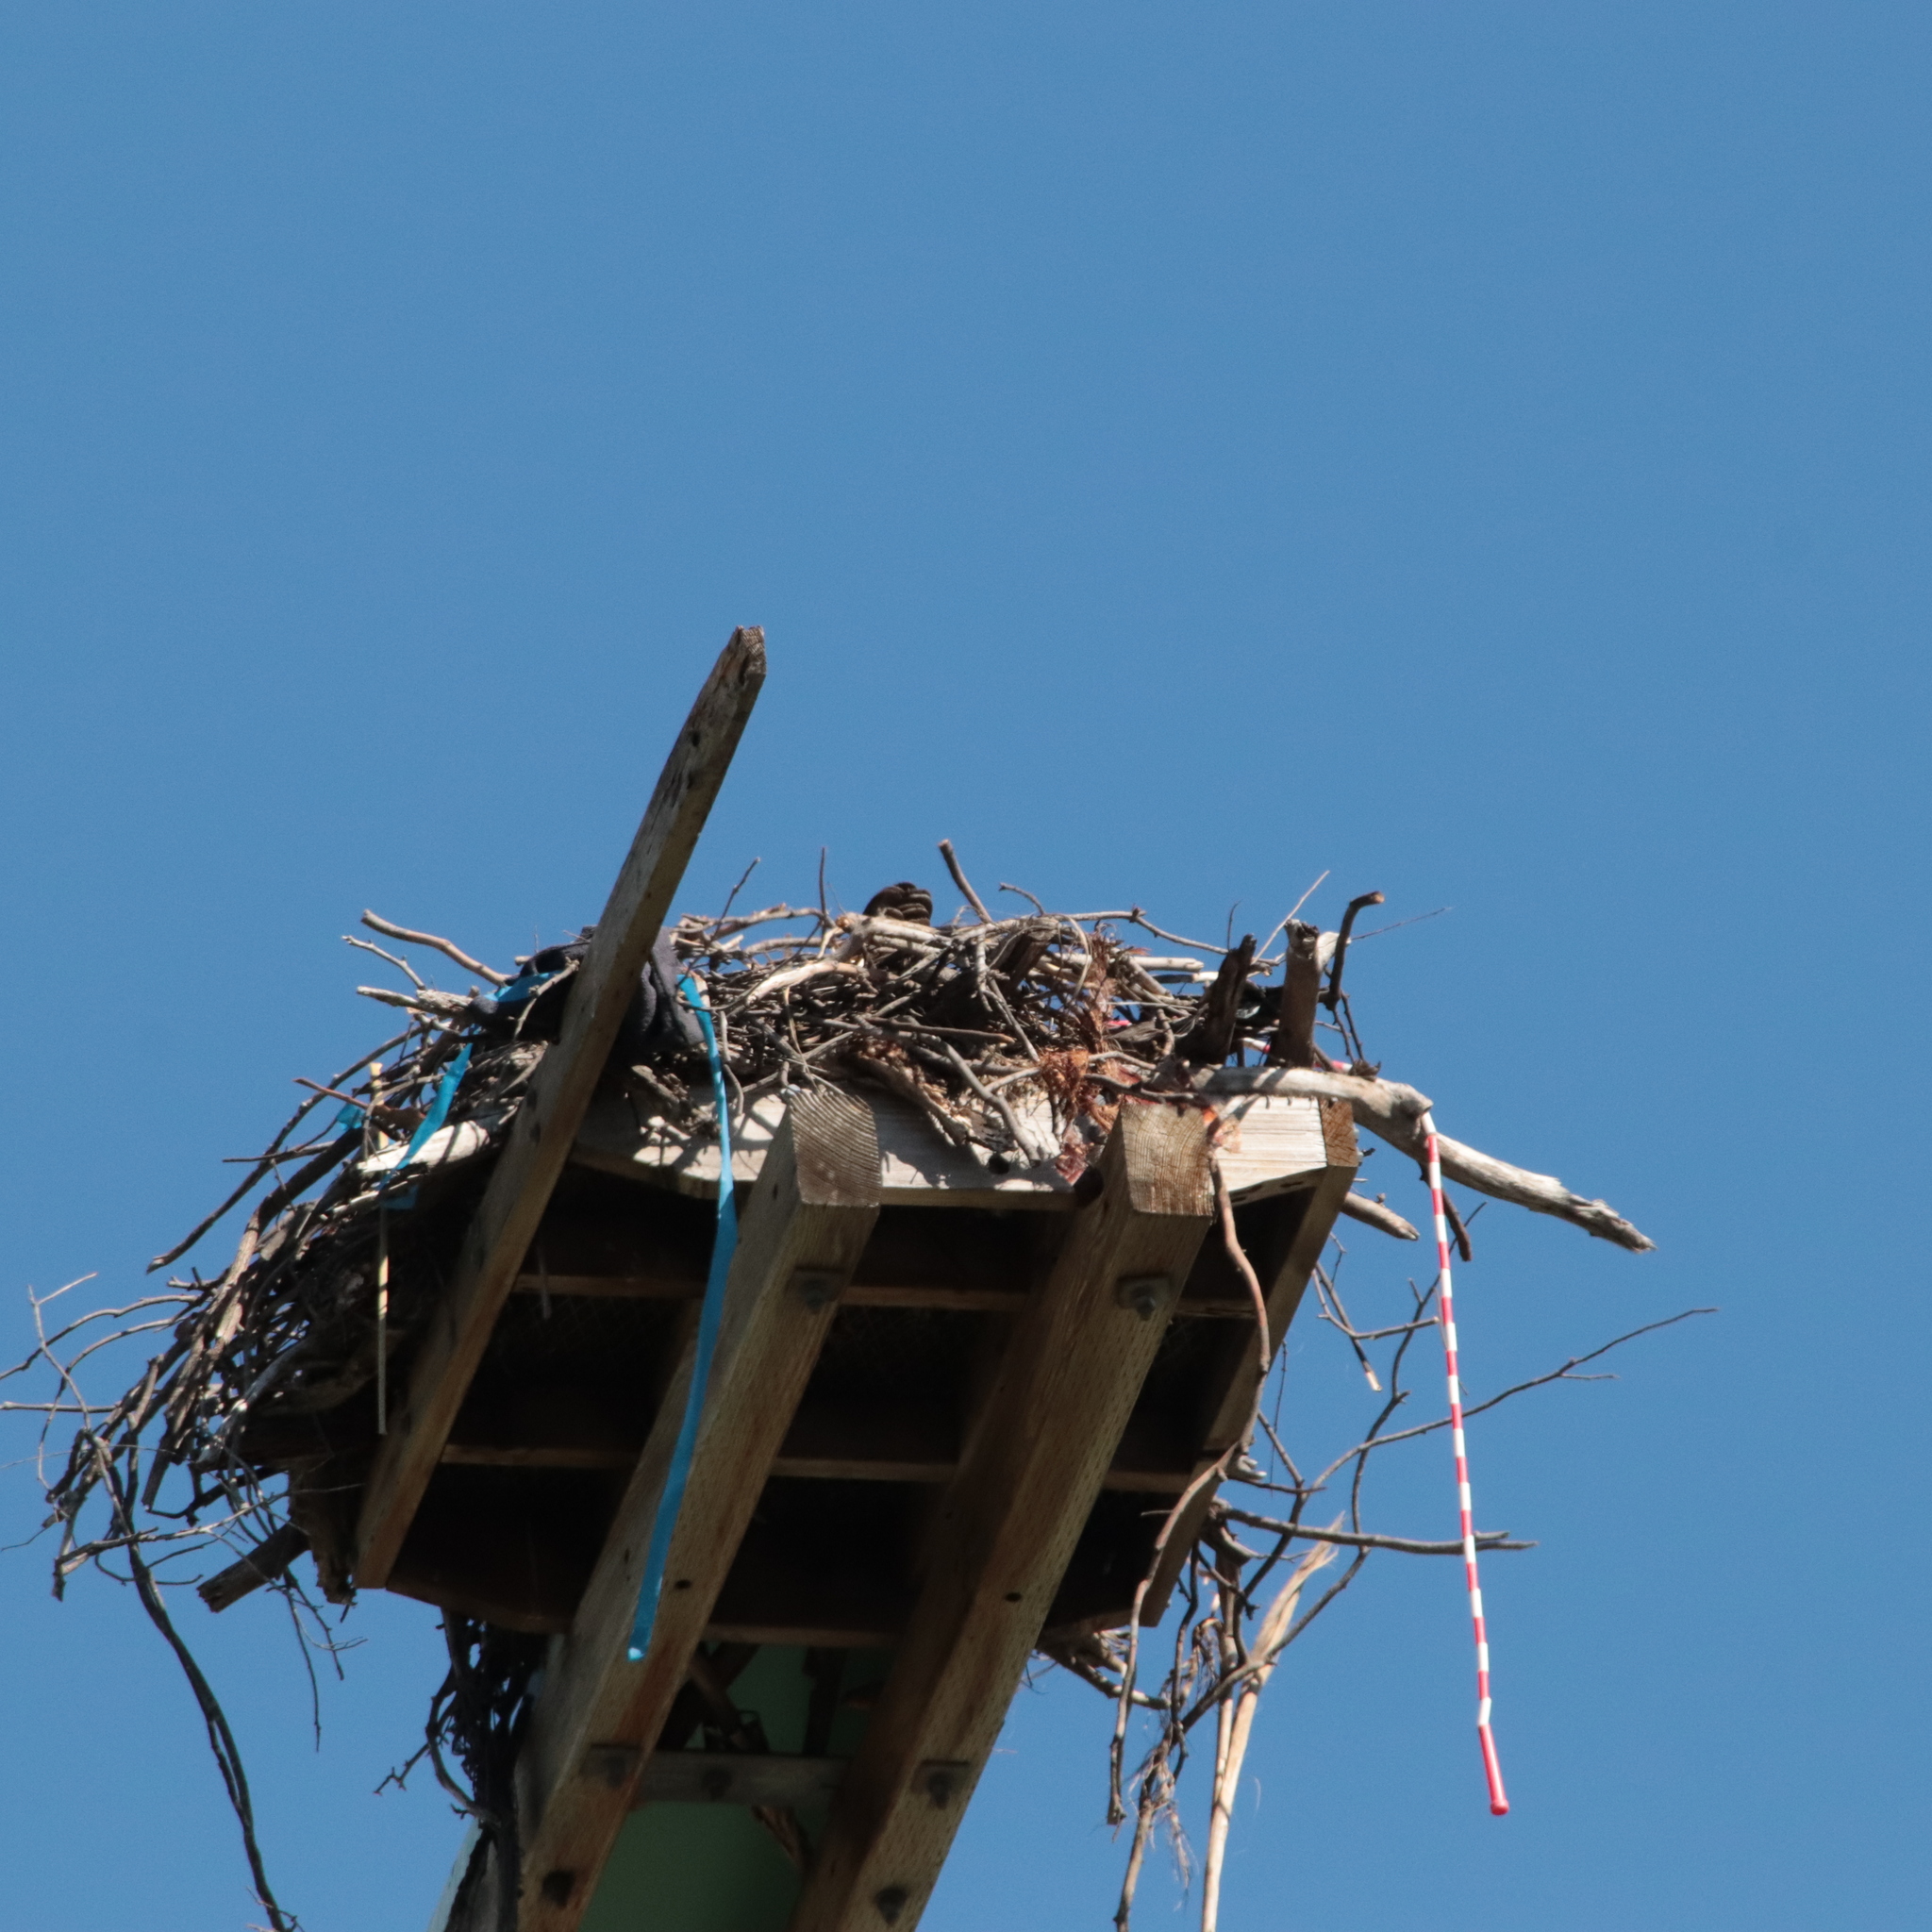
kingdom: Animalia
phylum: Chordata
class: Aves
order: Accipitriformes
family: Pandionidae
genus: Pandion
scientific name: Pandion haliaetus
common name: Osprey
